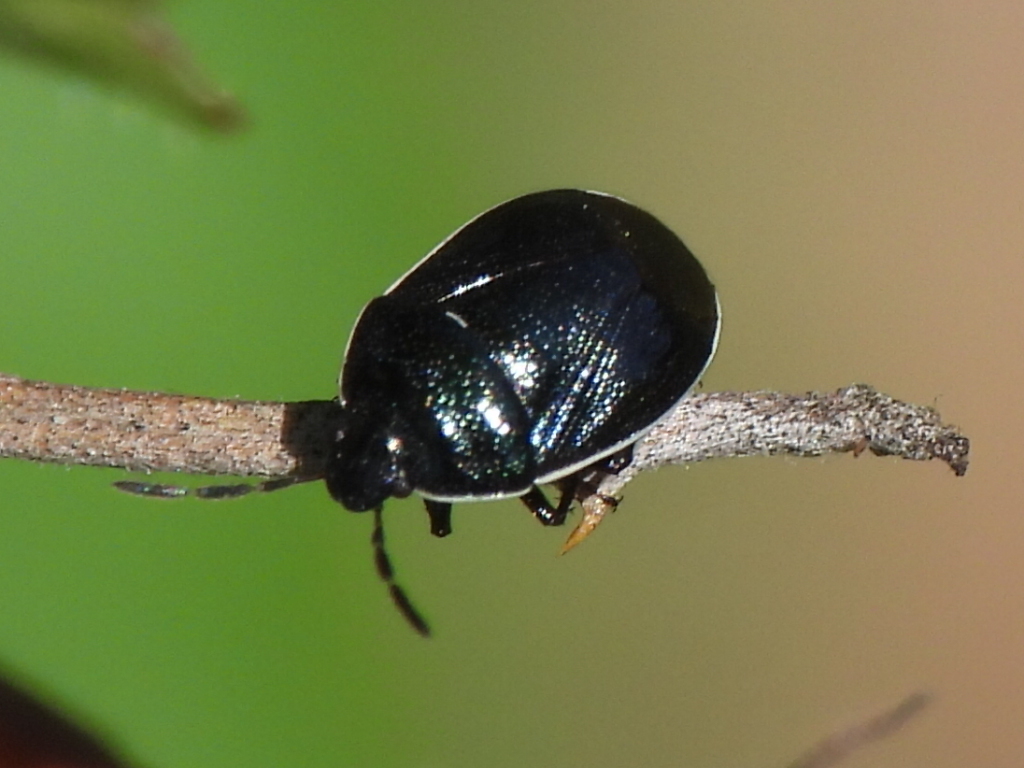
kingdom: Animalia
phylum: Arthropoda
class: Insecta
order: Hemiptera
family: Cydnidae
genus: Sehirus
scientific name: Sehirus cinctus
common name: White-margined burrower bug
